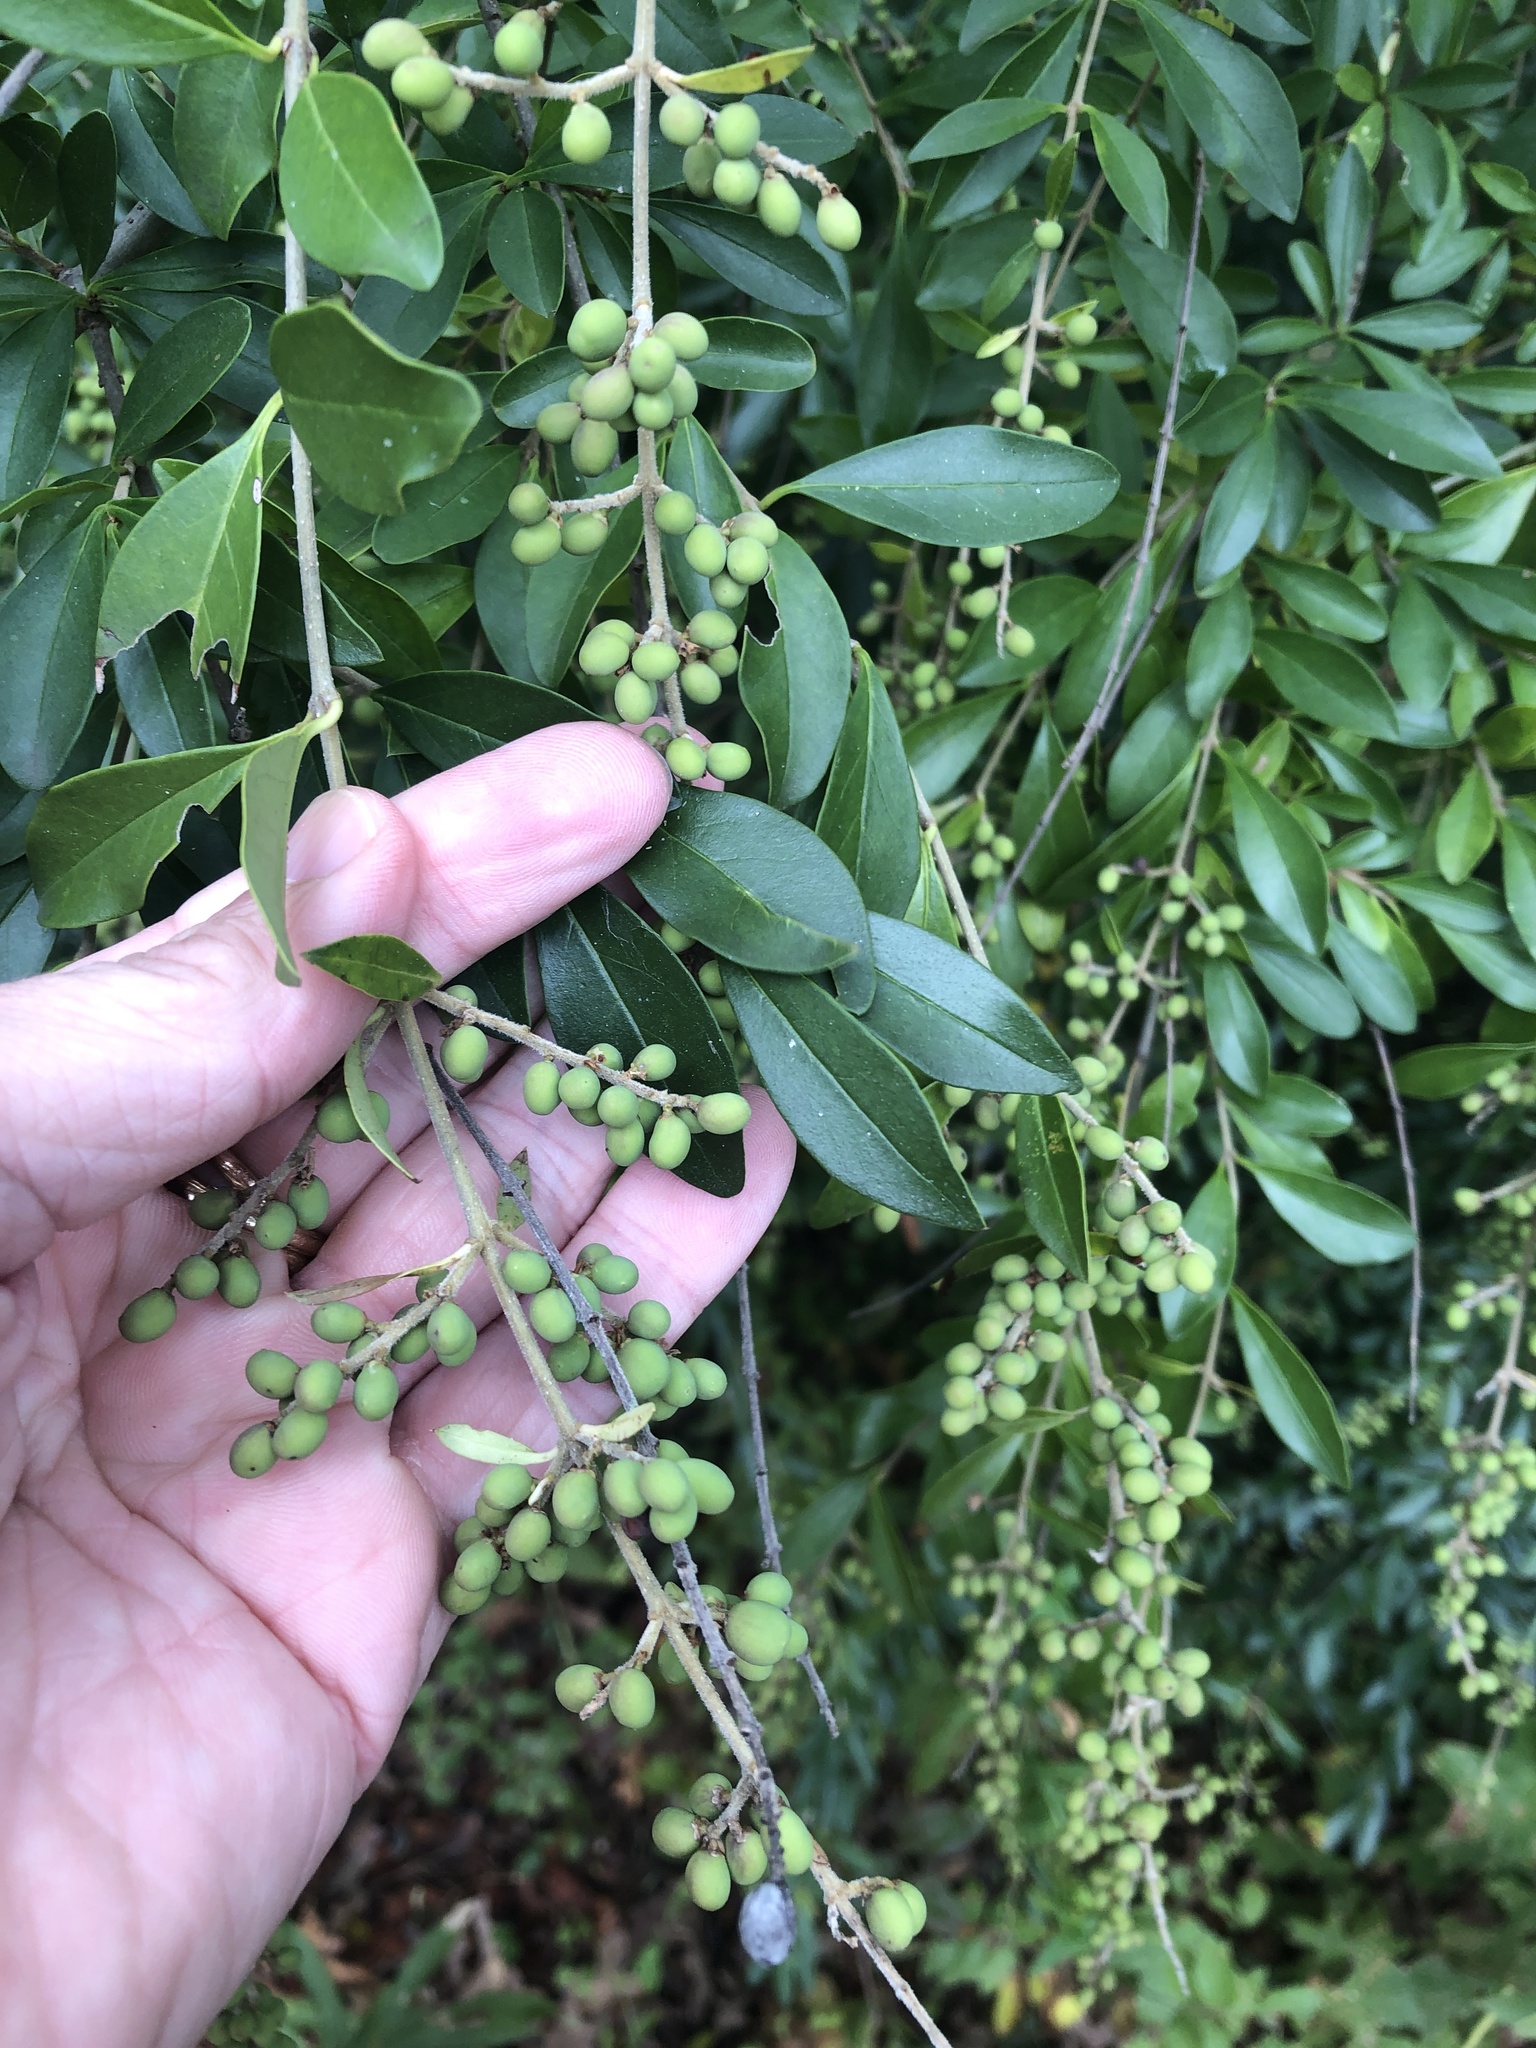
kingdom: Plantae
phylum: Tracheophyta
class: Magnoliopsida
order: Lamiales
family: Oleaceae
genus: Ligustrum
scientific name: Ligustrum quihoui
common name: Waxyleaf privet
